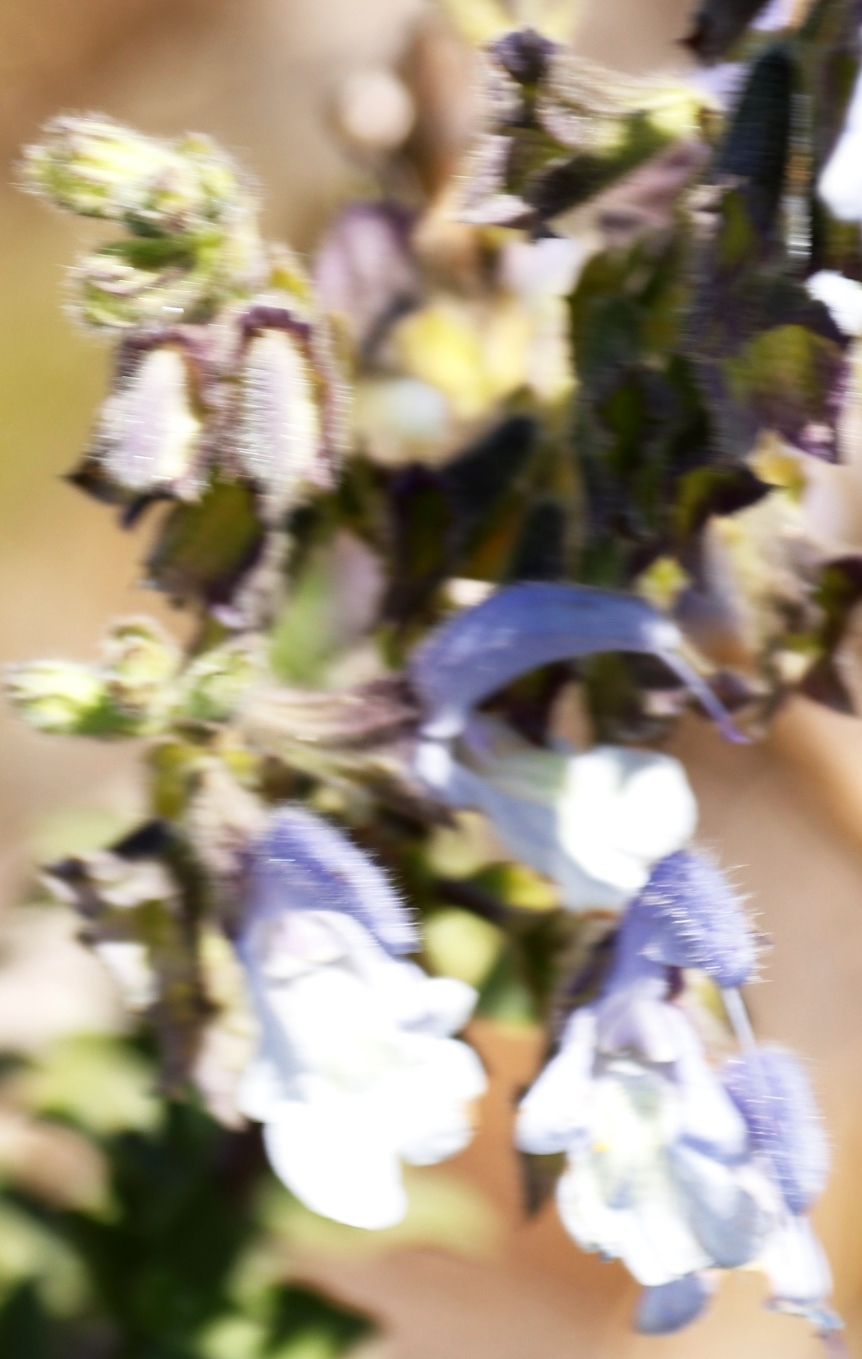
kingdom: Plantae
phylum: Tracheophyta
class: Magnoliopsida
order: Lamiales
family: Lamiaceae
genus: Salvia
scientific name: Salvia africana
